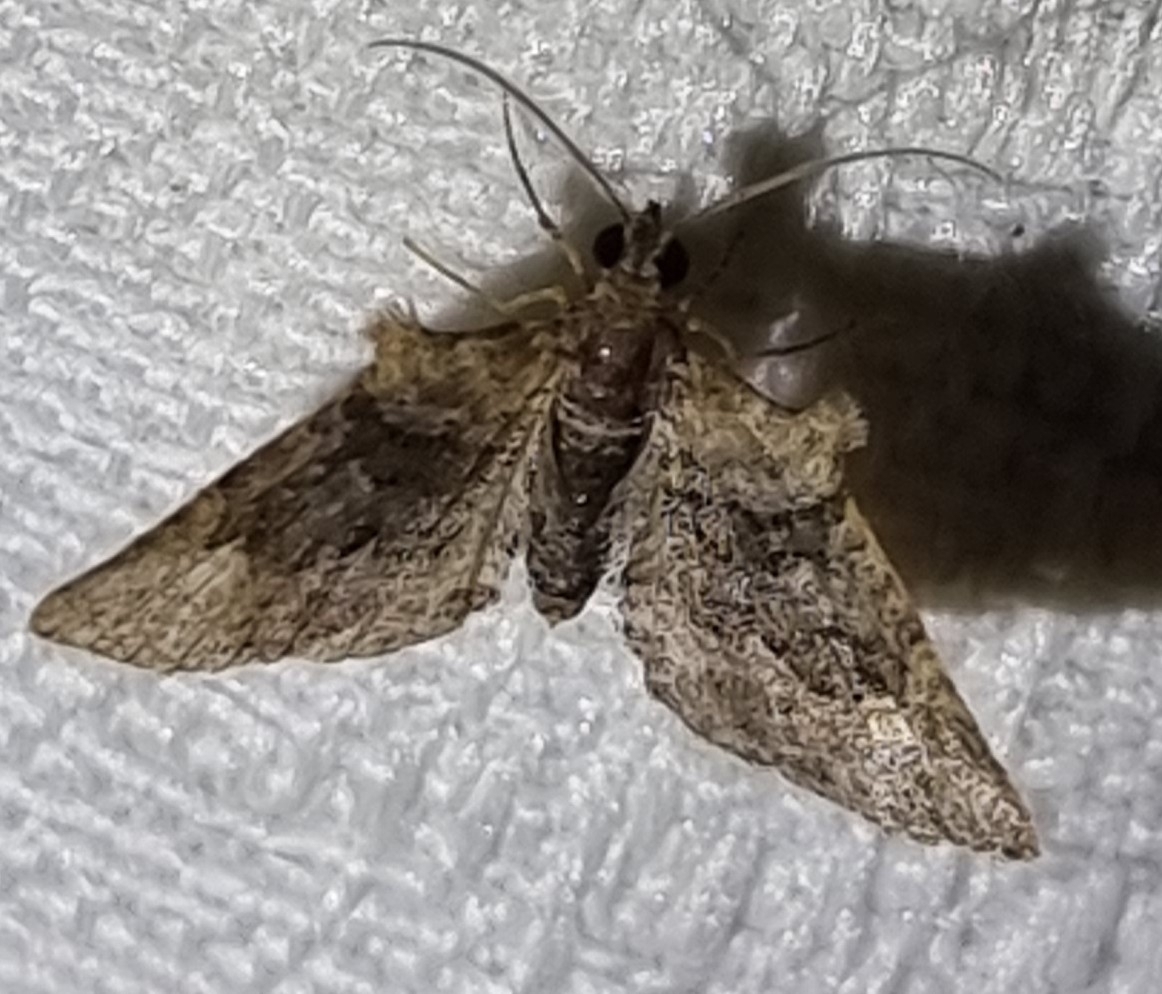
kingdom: Animalia
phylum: Arthropoda
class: Insecta
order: Lepidoptera
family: Geometridae
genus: Phrissogonus
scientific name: Phrissogonus laticostata
